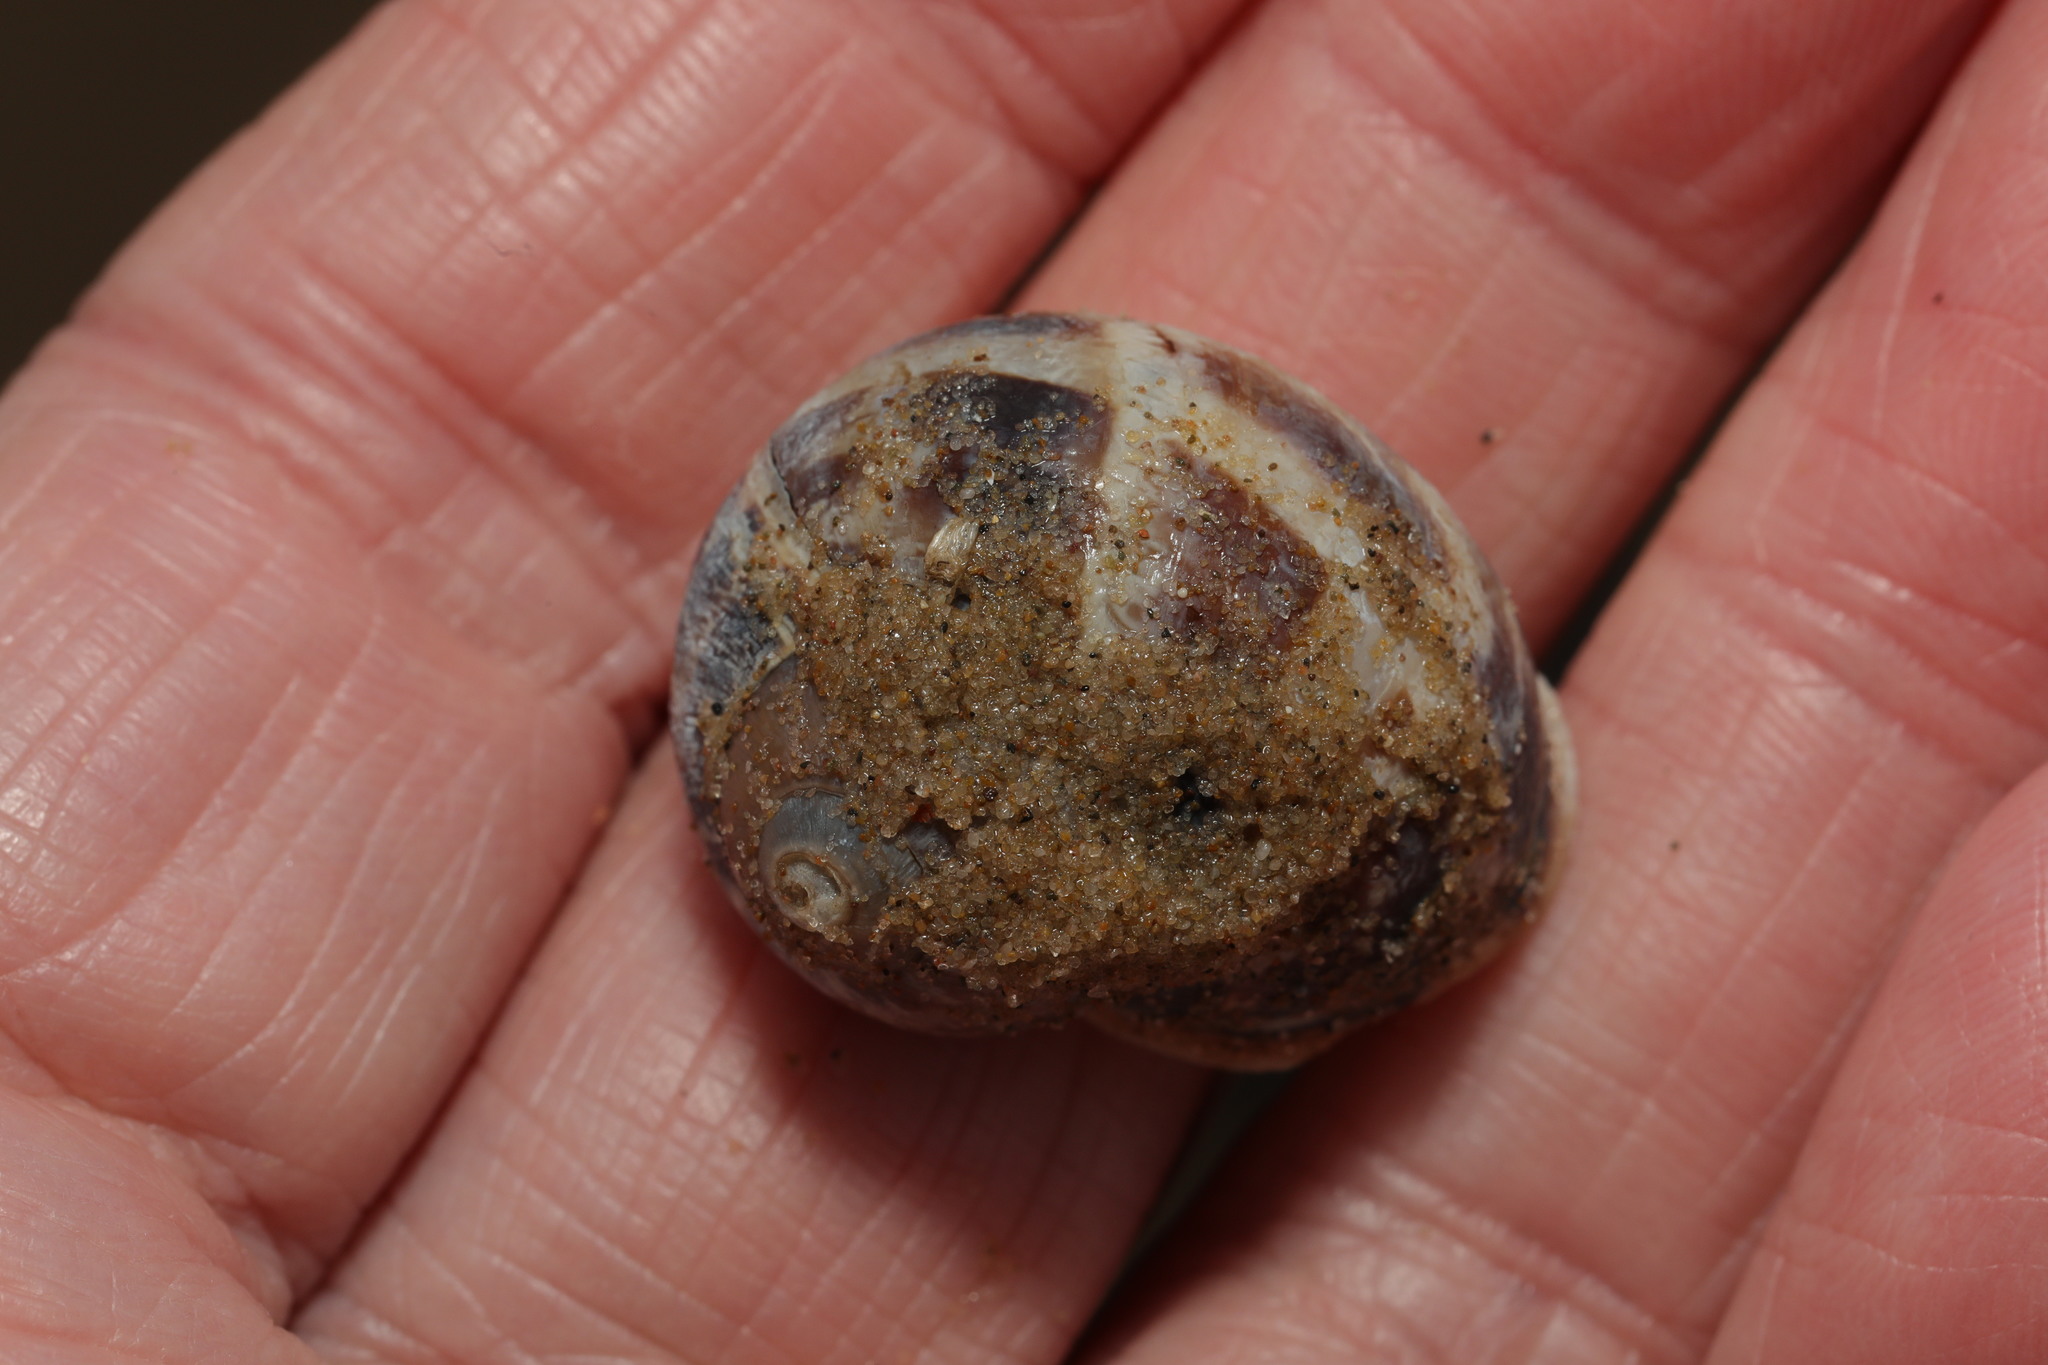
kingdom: Animalia
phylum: Mollusca
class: Gastropoda
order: Stylommatophora
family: Helicidae
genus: Cornu
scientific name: Cornu aspersum
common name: Brown garden snail
